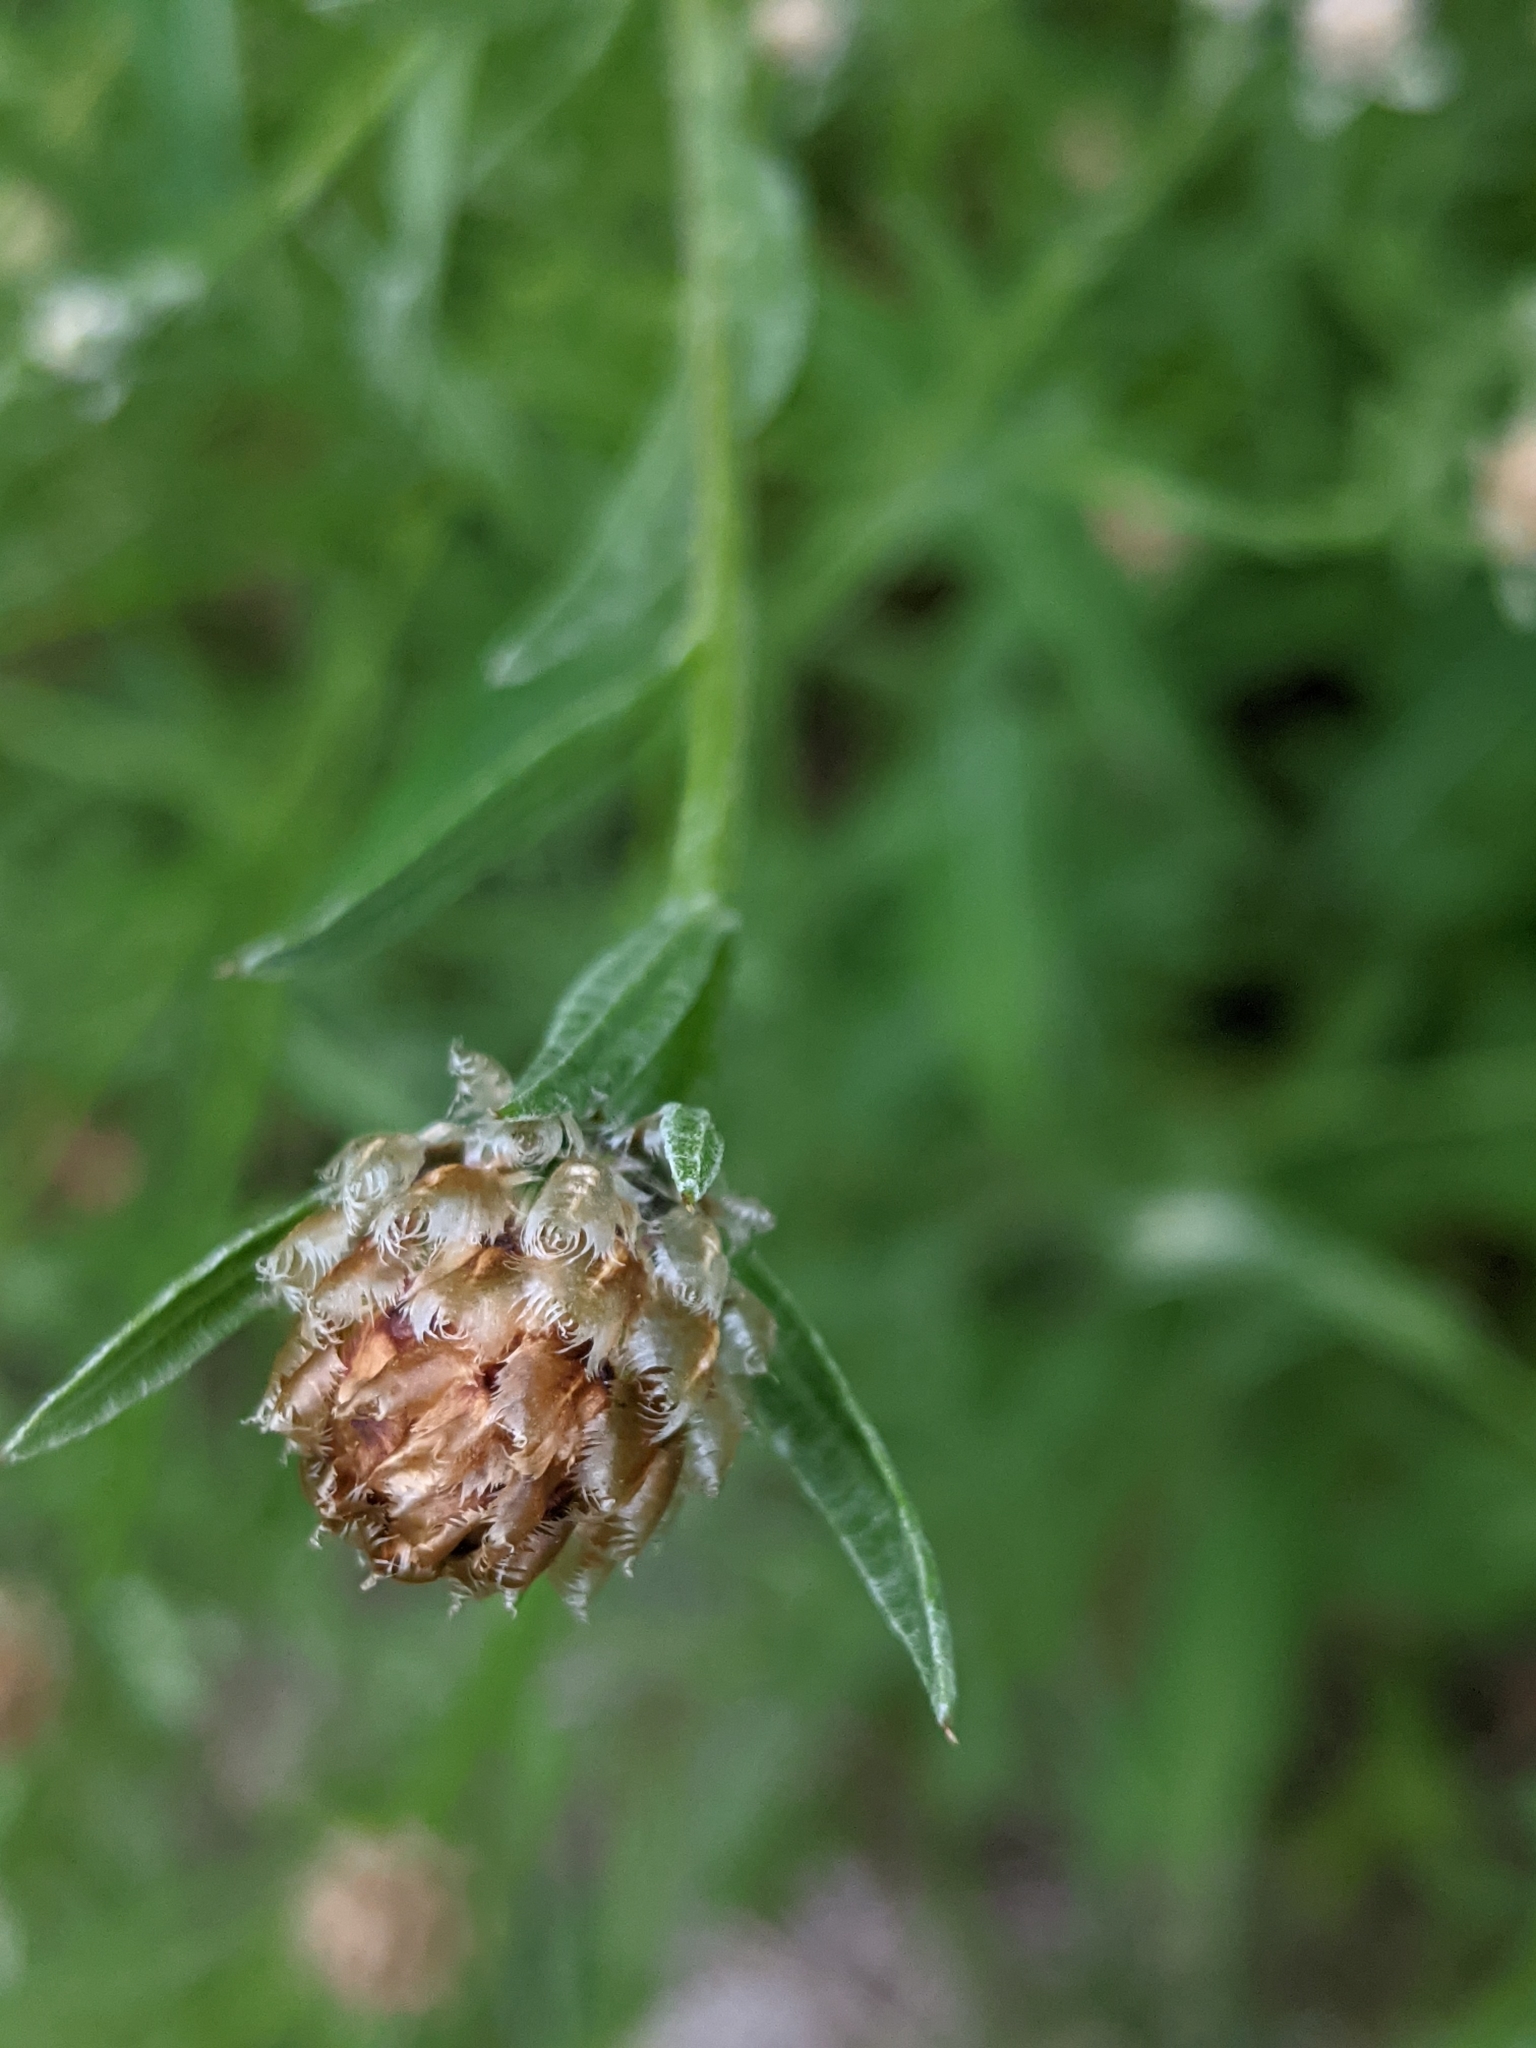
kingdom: Plantae
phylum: Tracheophyta
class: Magnoliopsida
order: Asterales
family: Asteraceae
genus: Centaurea
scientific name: Centaurea moncktonii
